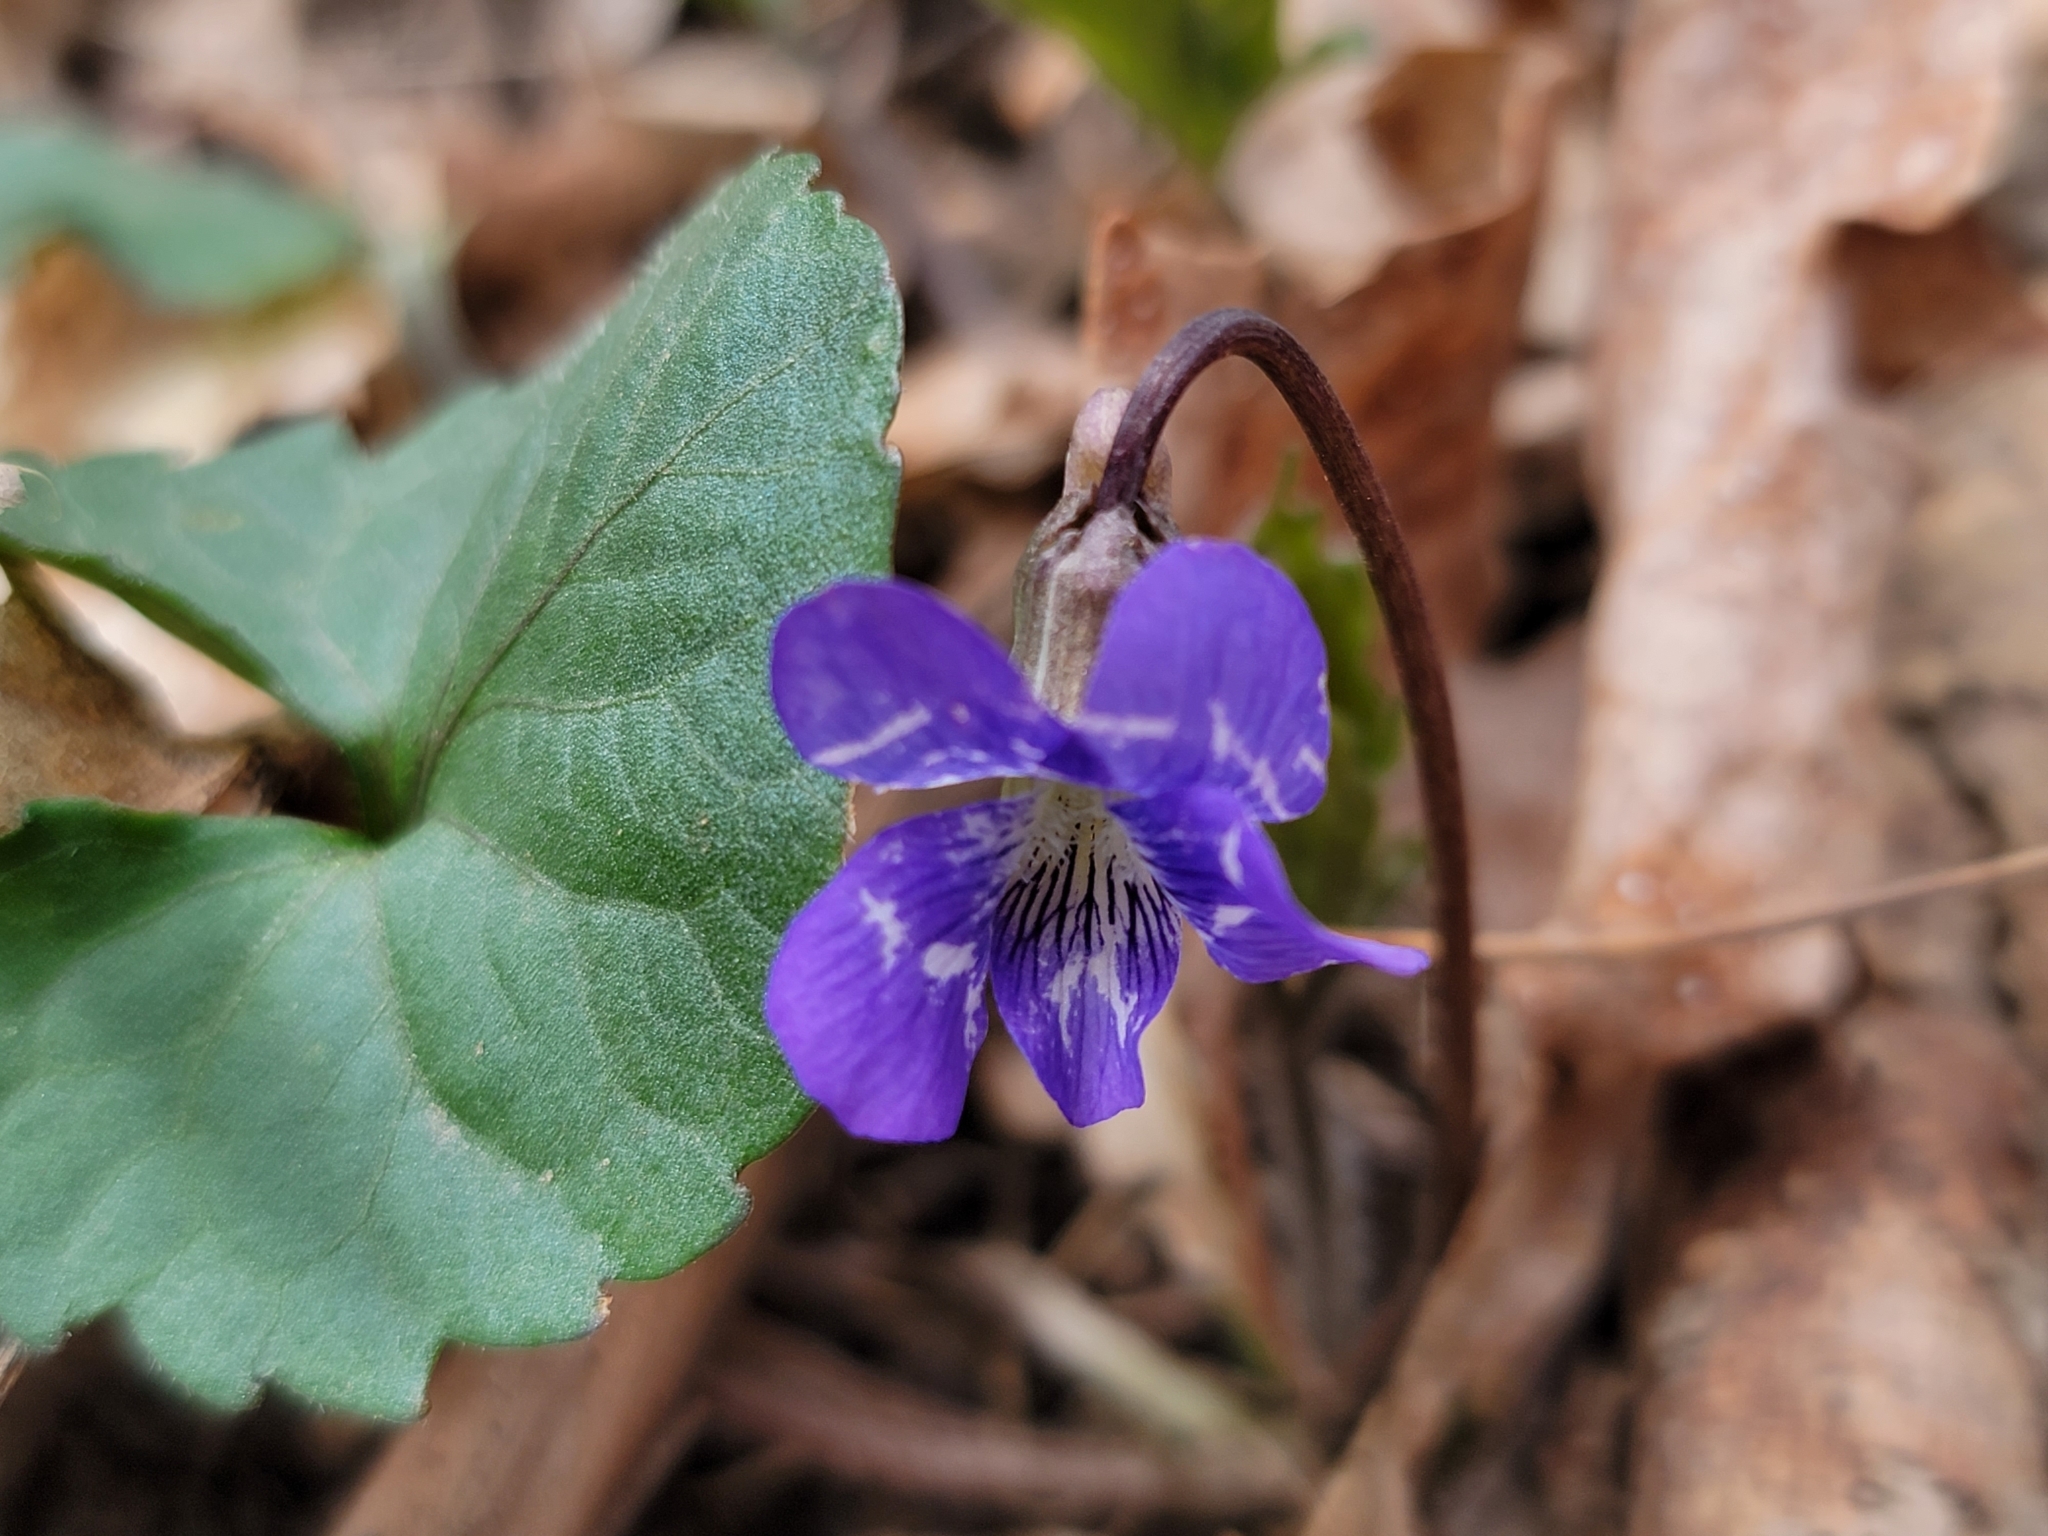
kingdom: Plantae
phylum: Tracheophyta
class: Magnoliopsida
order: Malpighiales
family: Violaceae
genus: Viola
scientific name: Viola palmata
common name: Early blue violet
